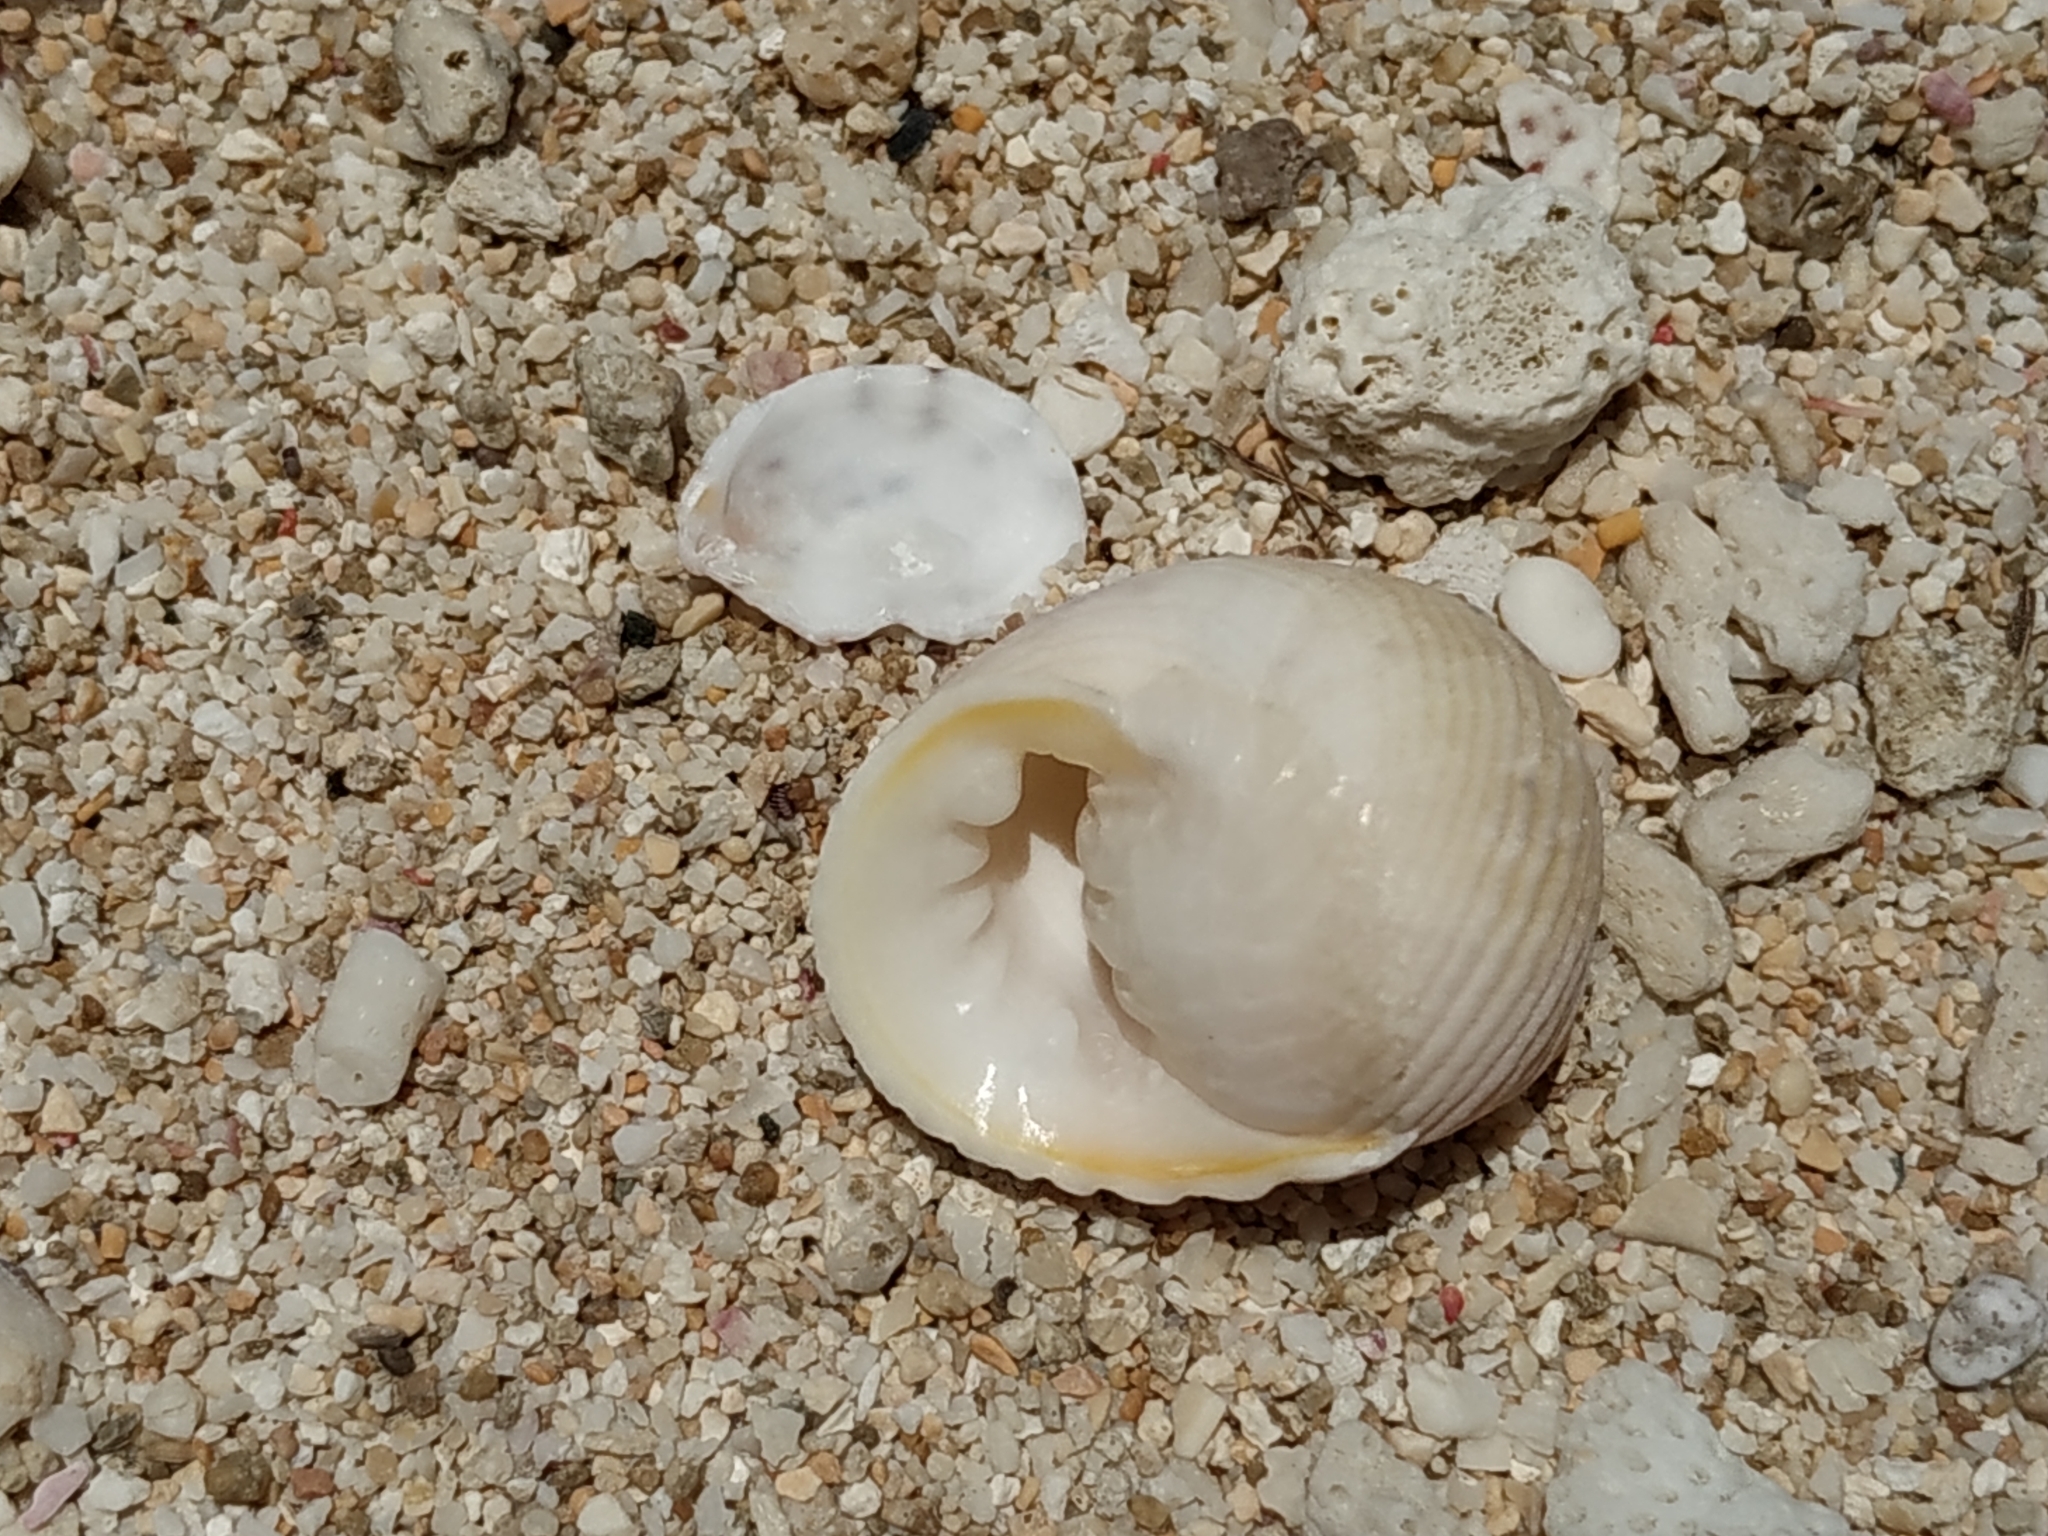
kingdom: Animalia
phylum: Mollusca
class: Gastropoda
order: Cycloneritida
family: Neritidae
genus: Nerita
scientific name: Nerita plicata
